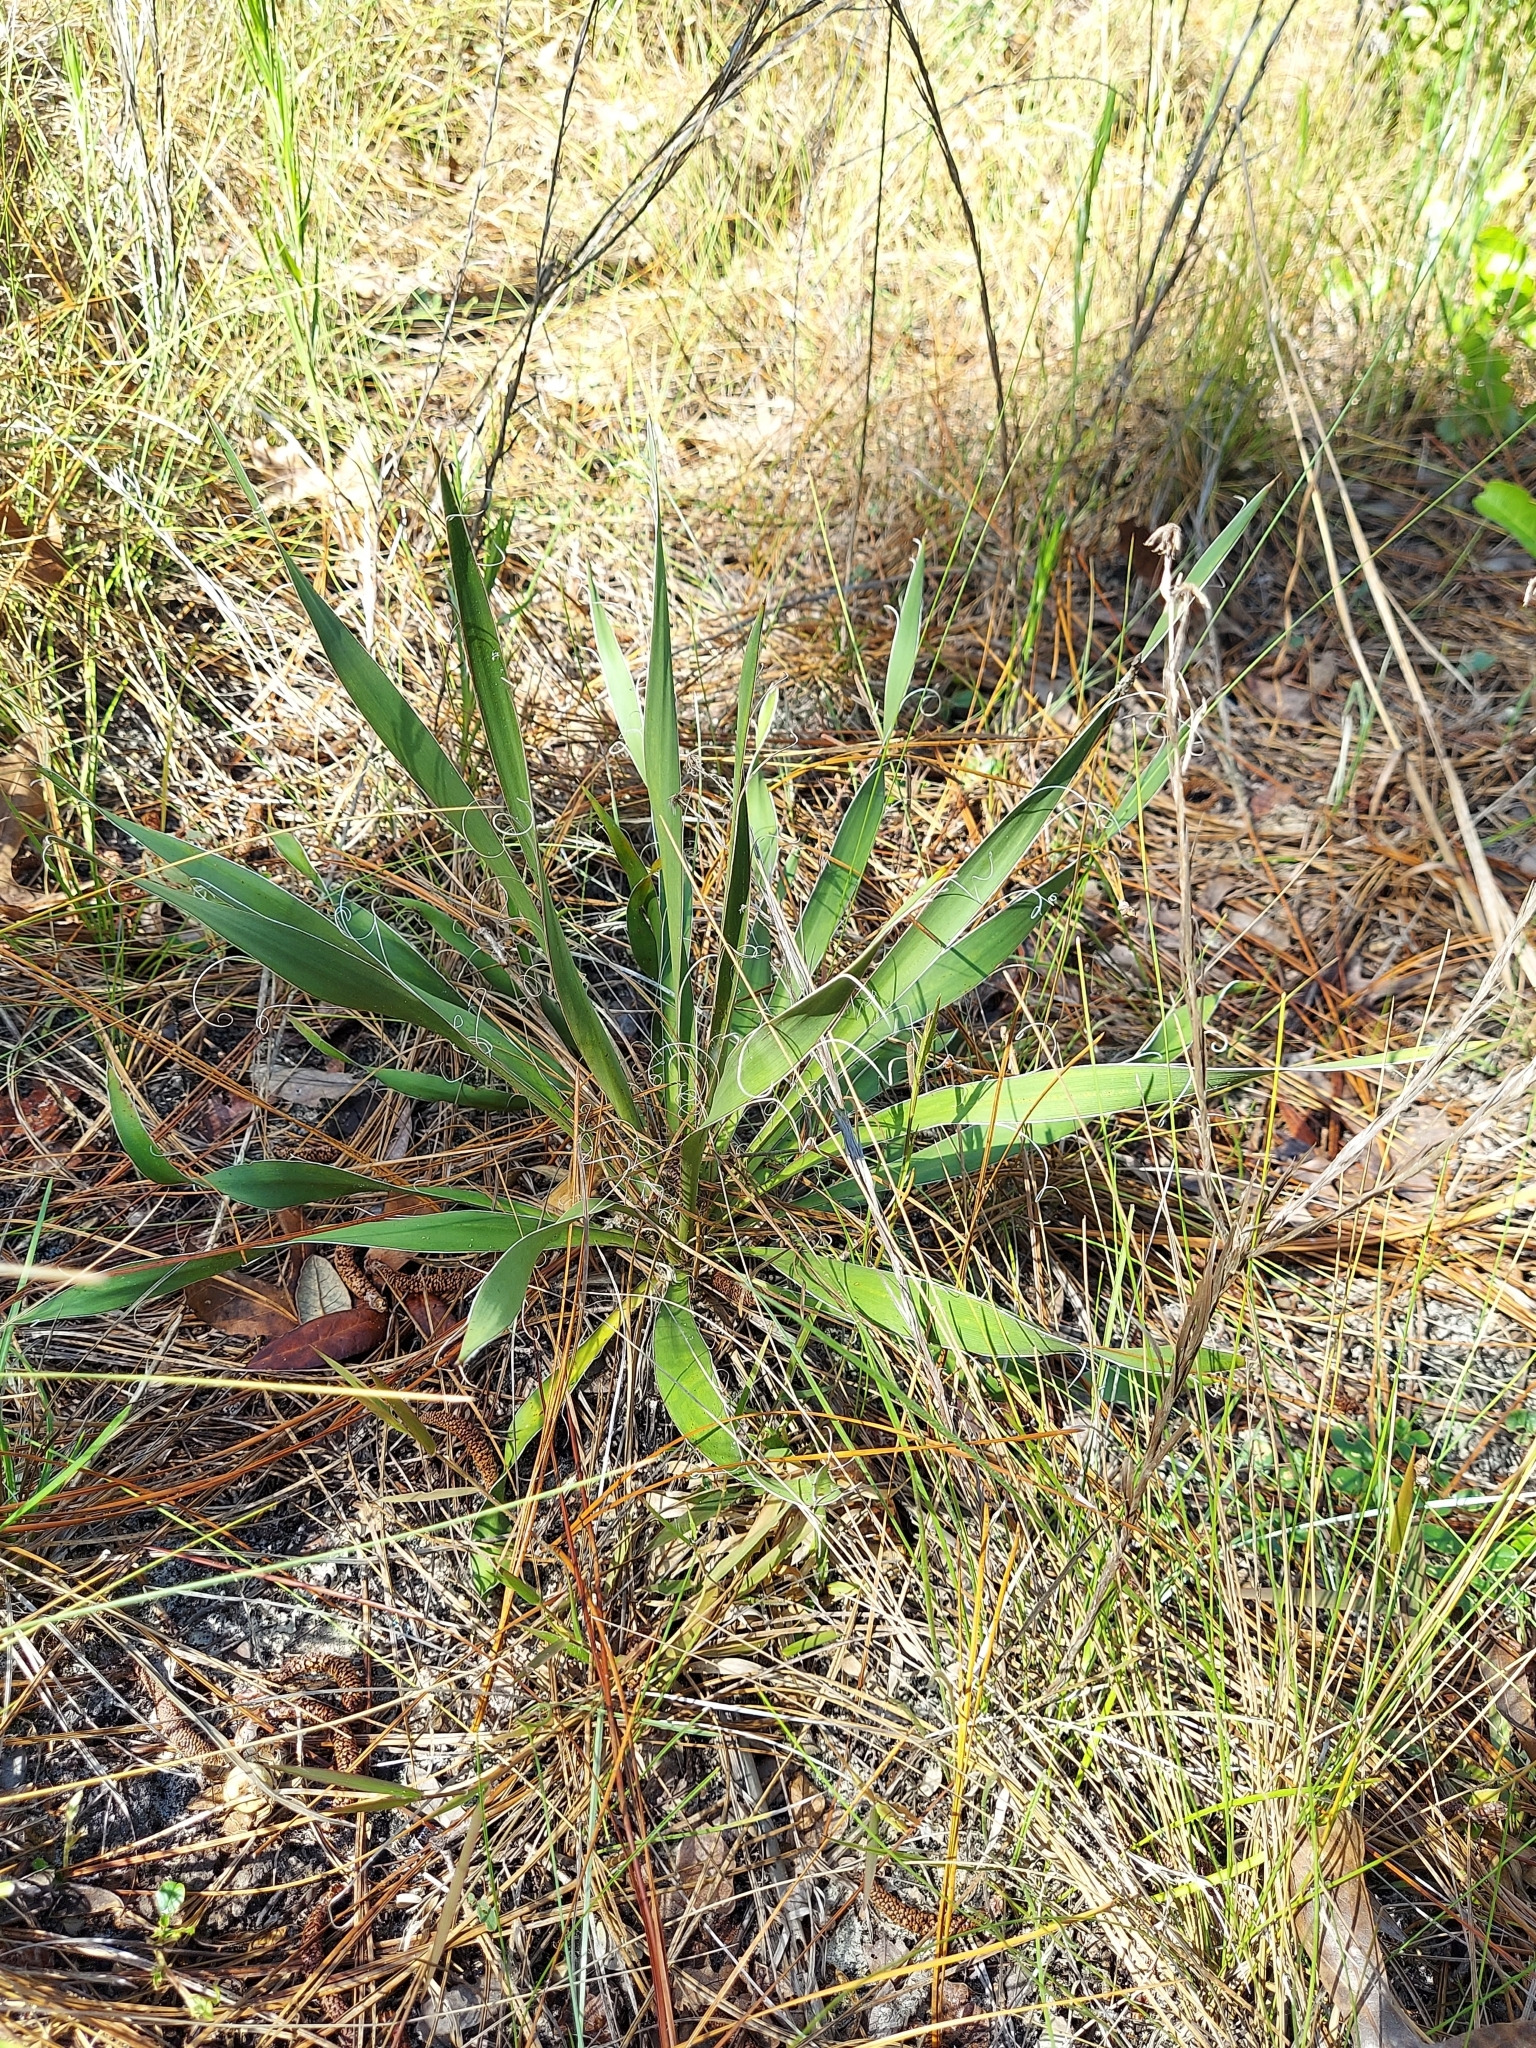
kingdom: Plantae
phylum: Tracheophyta
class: Liliopsida
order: Asparagales
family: Asparagaceae
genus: Yucca
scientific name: Yucca filamentosa
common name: Adam's-needle
